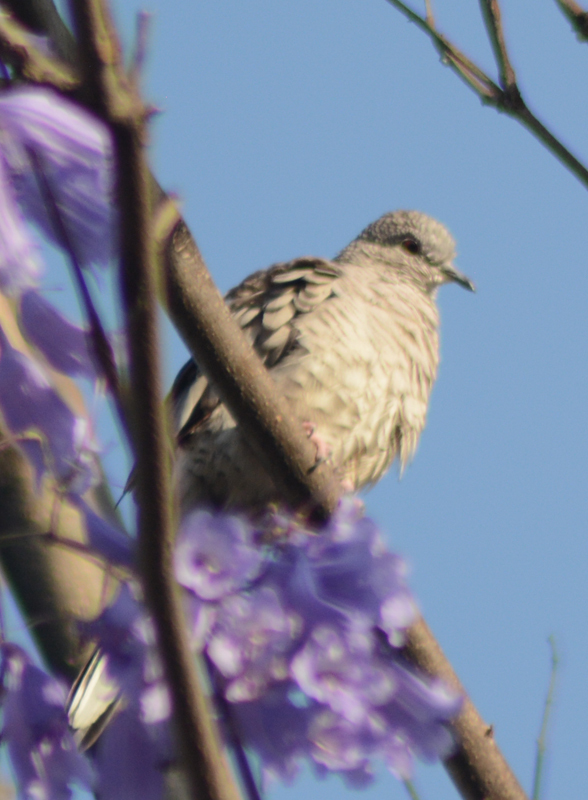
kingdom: Animalia
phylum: Chordata
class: Aves
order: Columbiformes
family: Columbidae
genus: Columbina
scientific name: Columbina inca
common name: Inca dove
